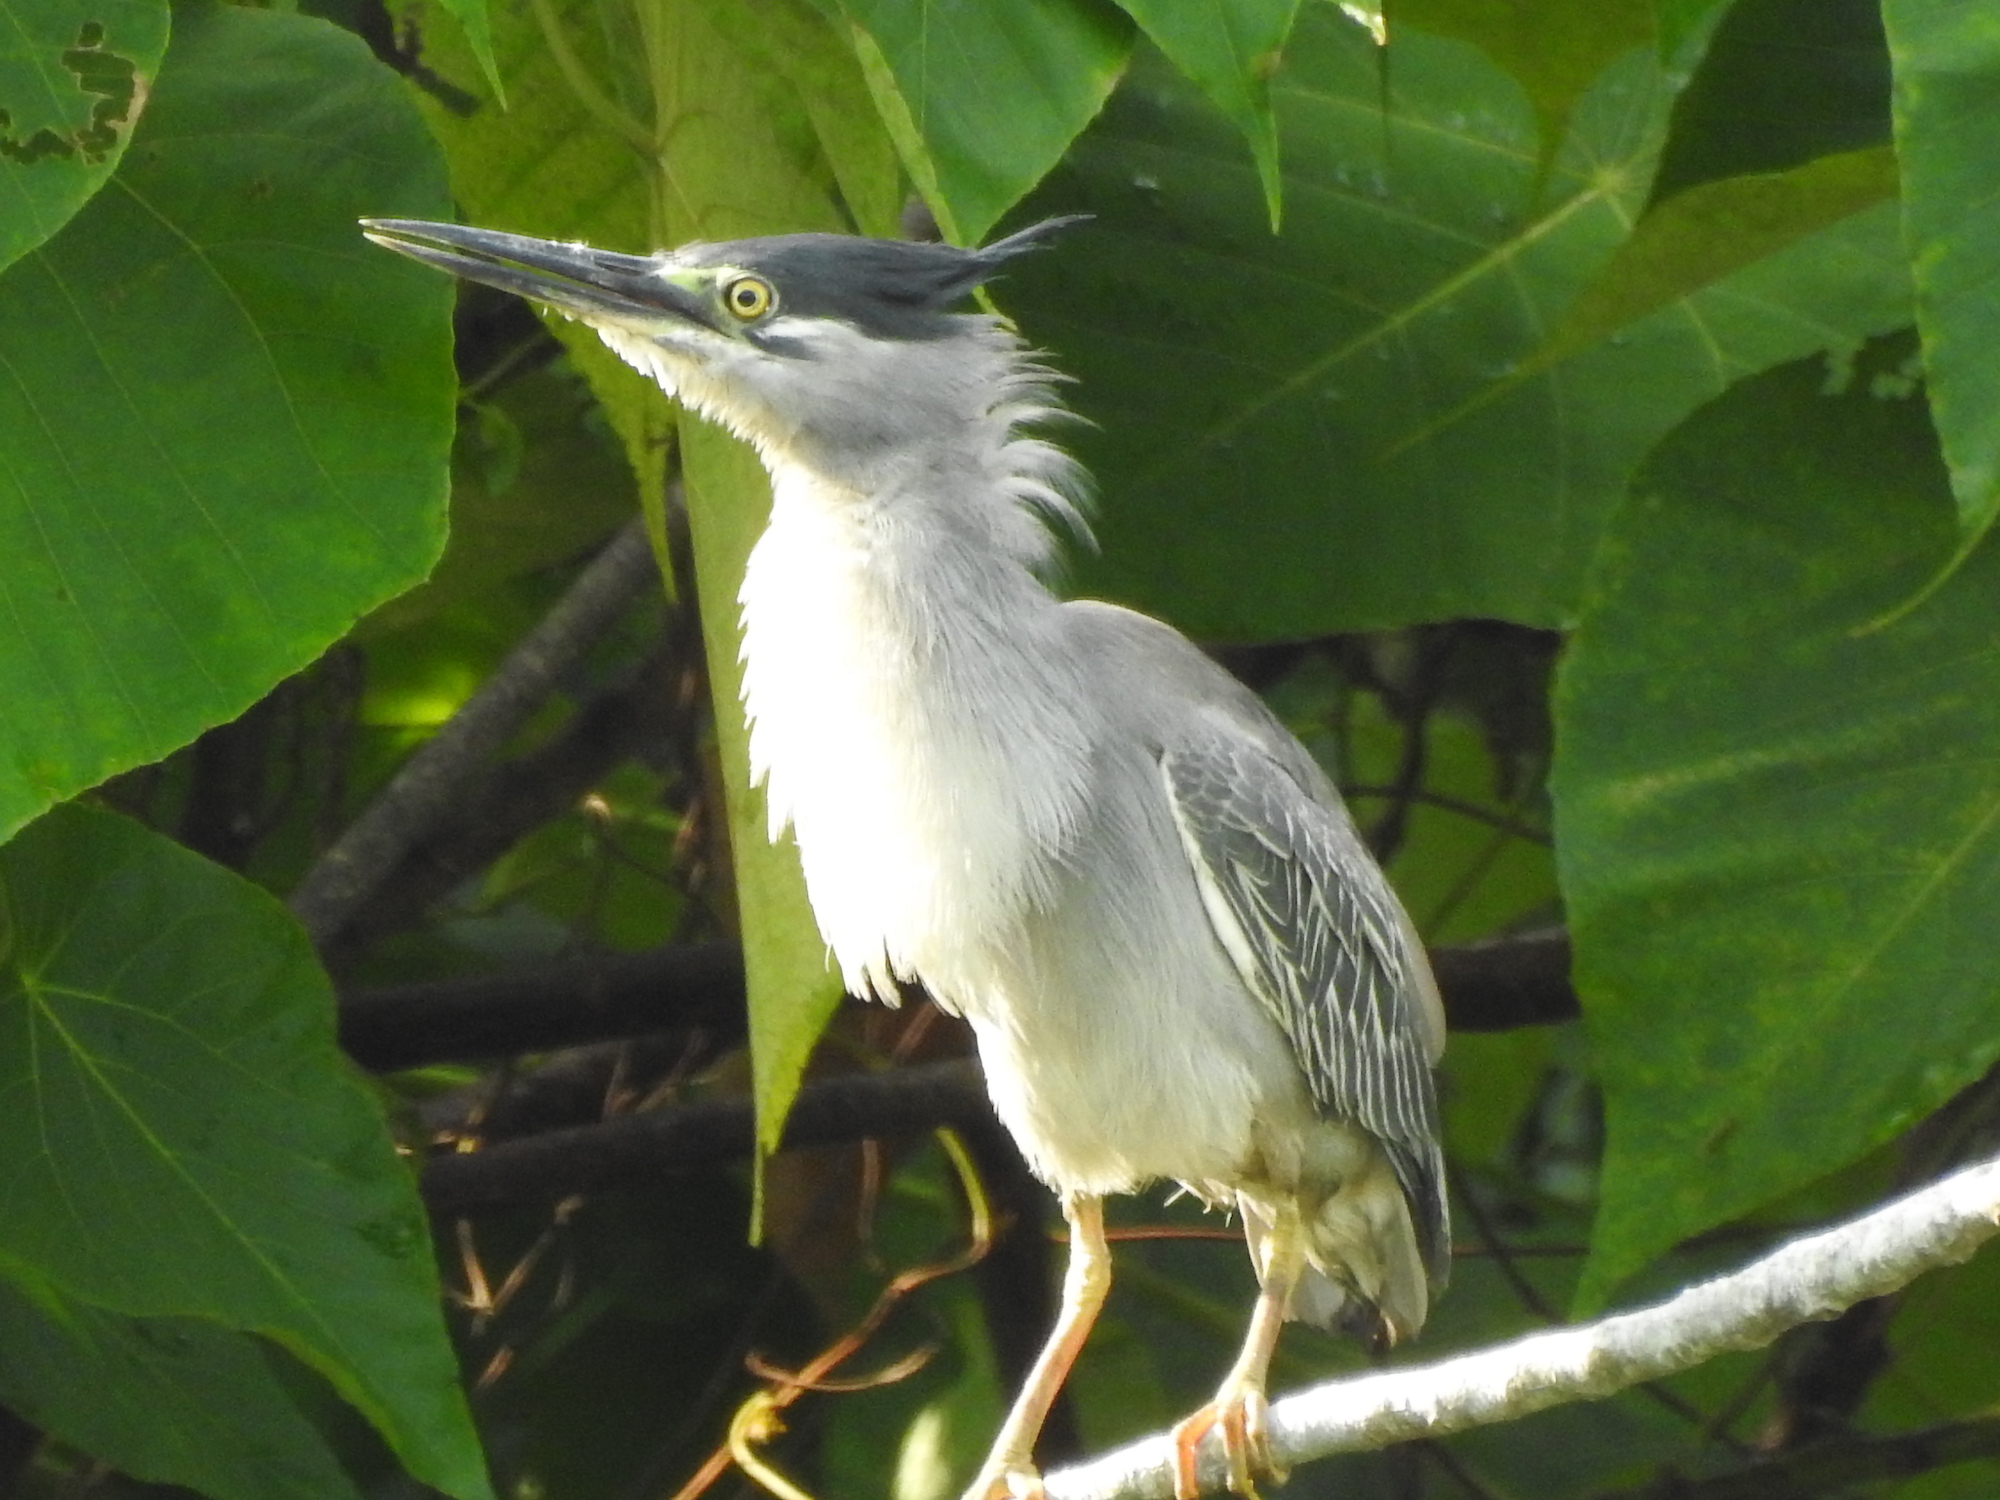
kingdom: Animalia
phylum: Chordata
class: Aves
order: Pelecaniformes
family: Ardeidae
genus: Butorides
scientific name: Butorides striata
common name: Striated heron
